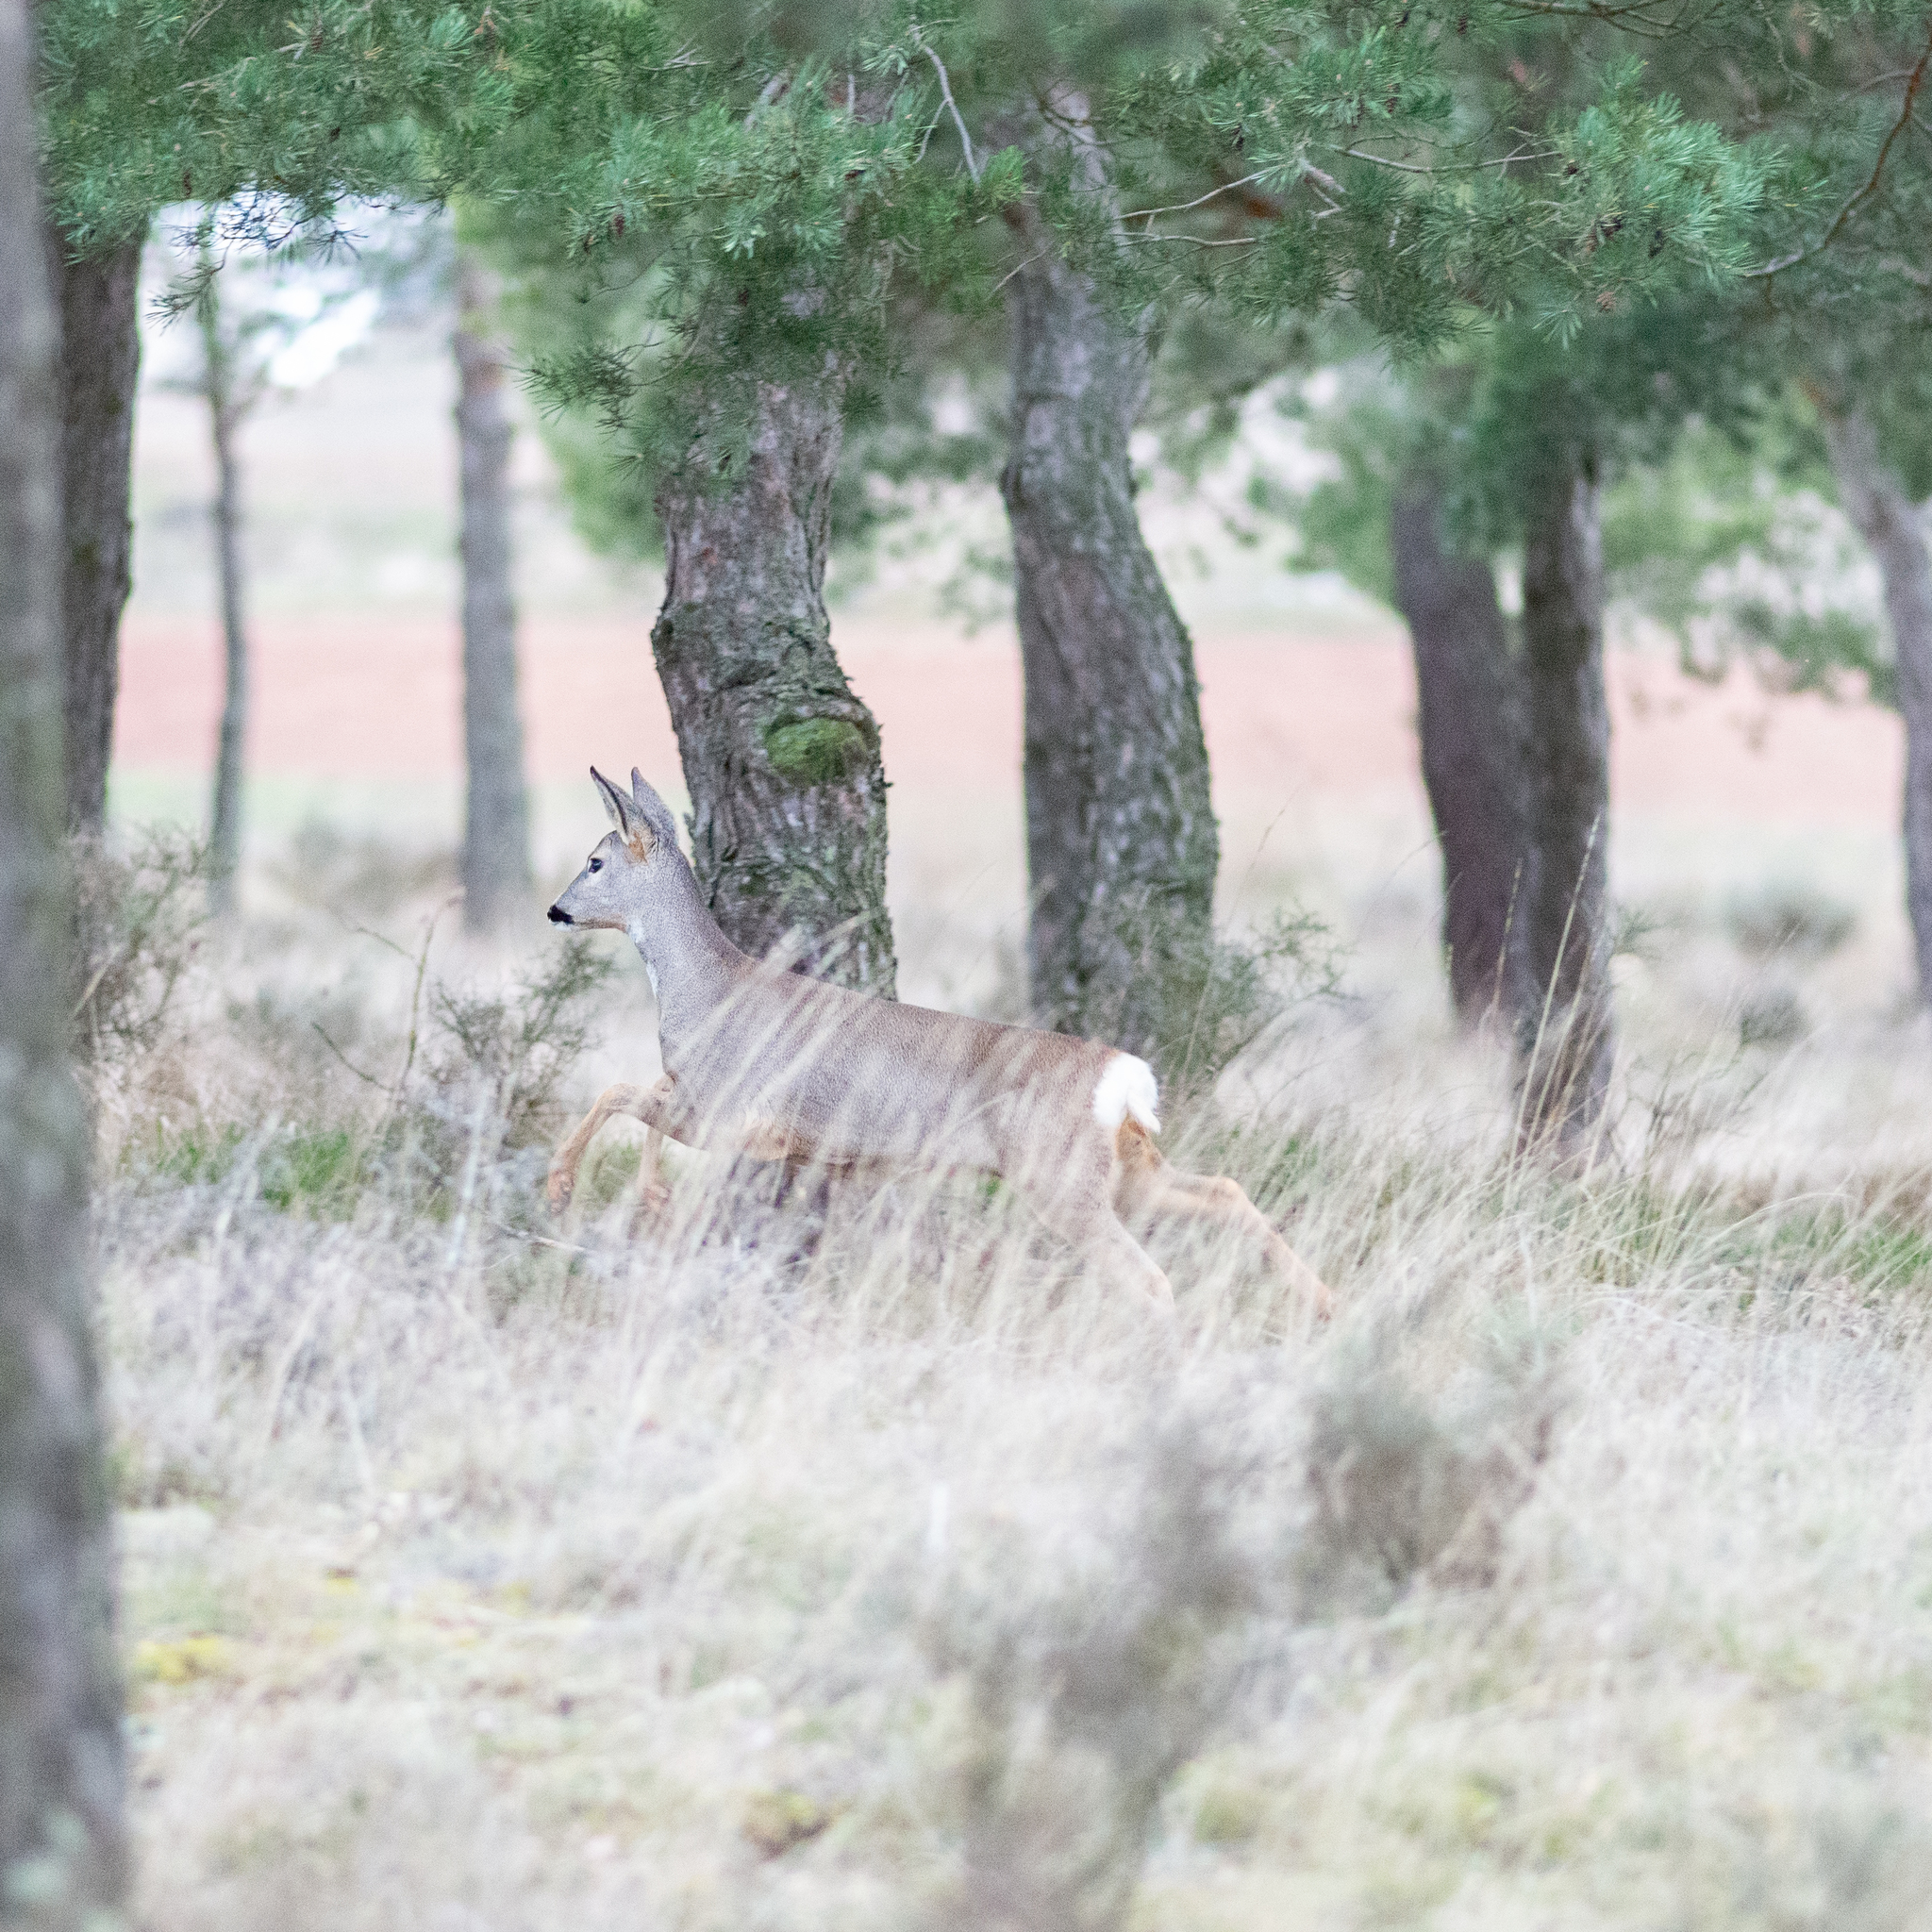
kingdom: Animalia
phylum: Chordata
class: Mammalia
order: Artiodactyla
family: Cervidae
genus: Capreolus
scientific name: Capreolus capreolus
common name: Western roe deer
